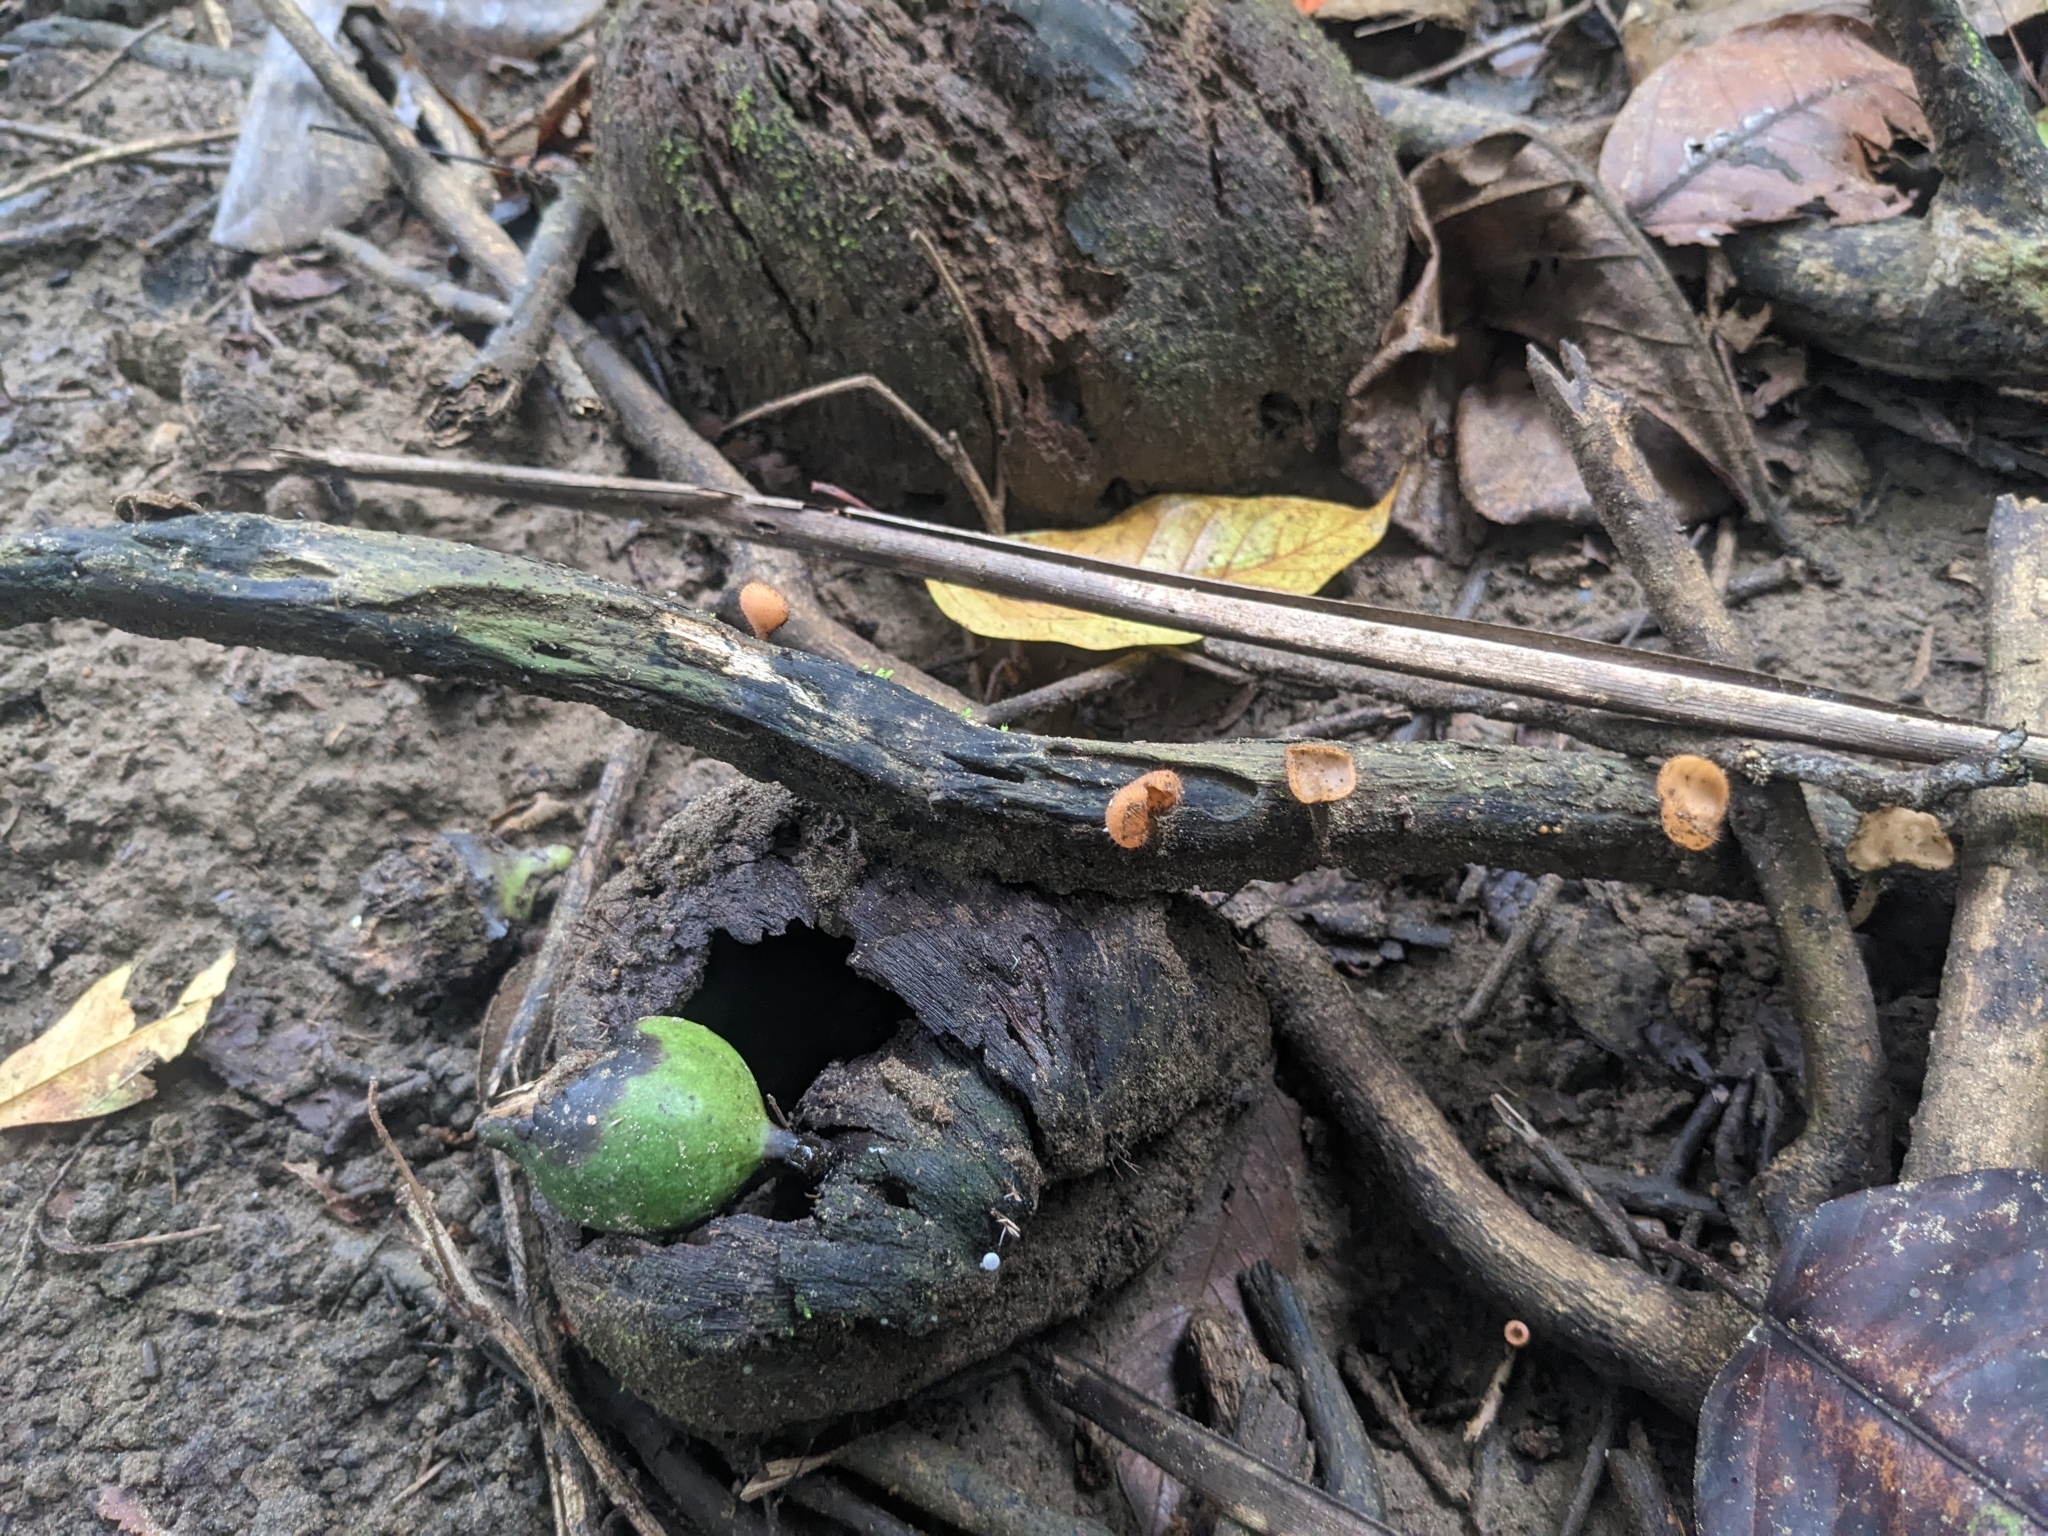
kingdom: Fungi
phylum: Ascomycota
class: Pezizomycetes
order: Pezizales
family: Sarcoscyphaceae
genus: Cookeina
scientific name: Cookeina tricholoma
